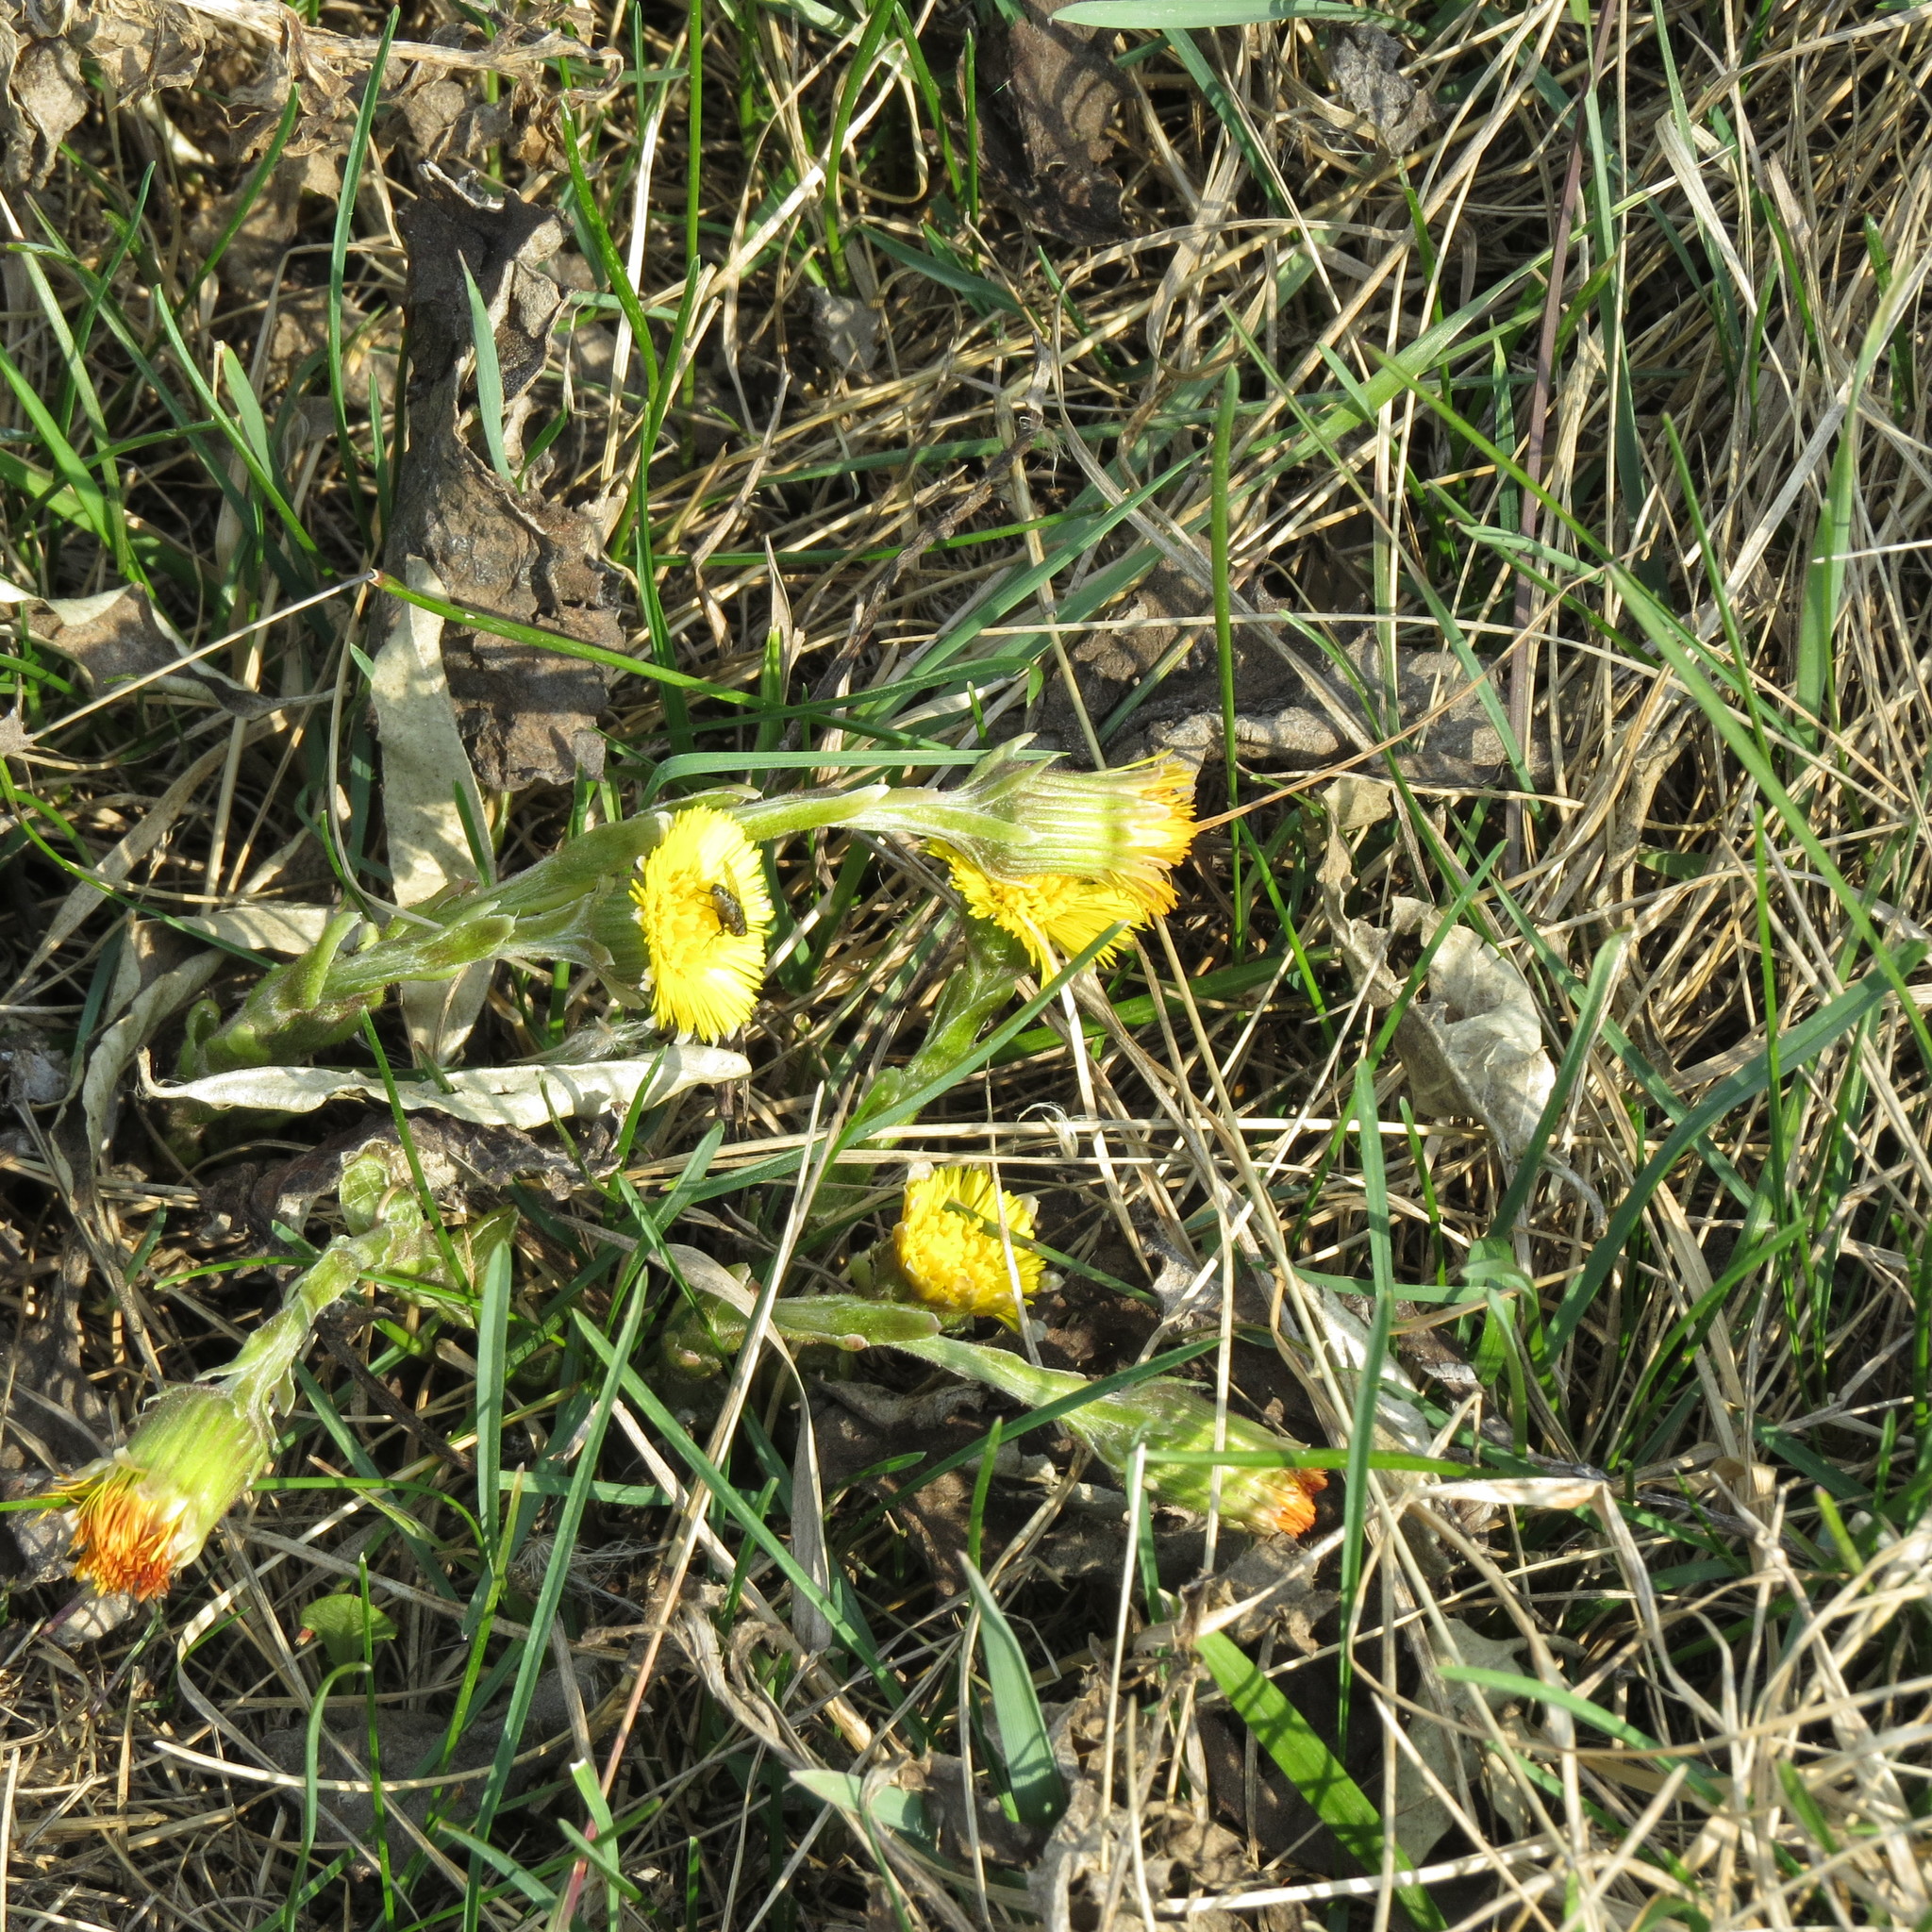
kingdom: Plantae
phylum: Tracheophyta
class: Magnoliopsida
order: Asterales
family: Asteraceae
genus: Tussilago
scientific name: Tussilago farfara
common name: Coltsfoot
